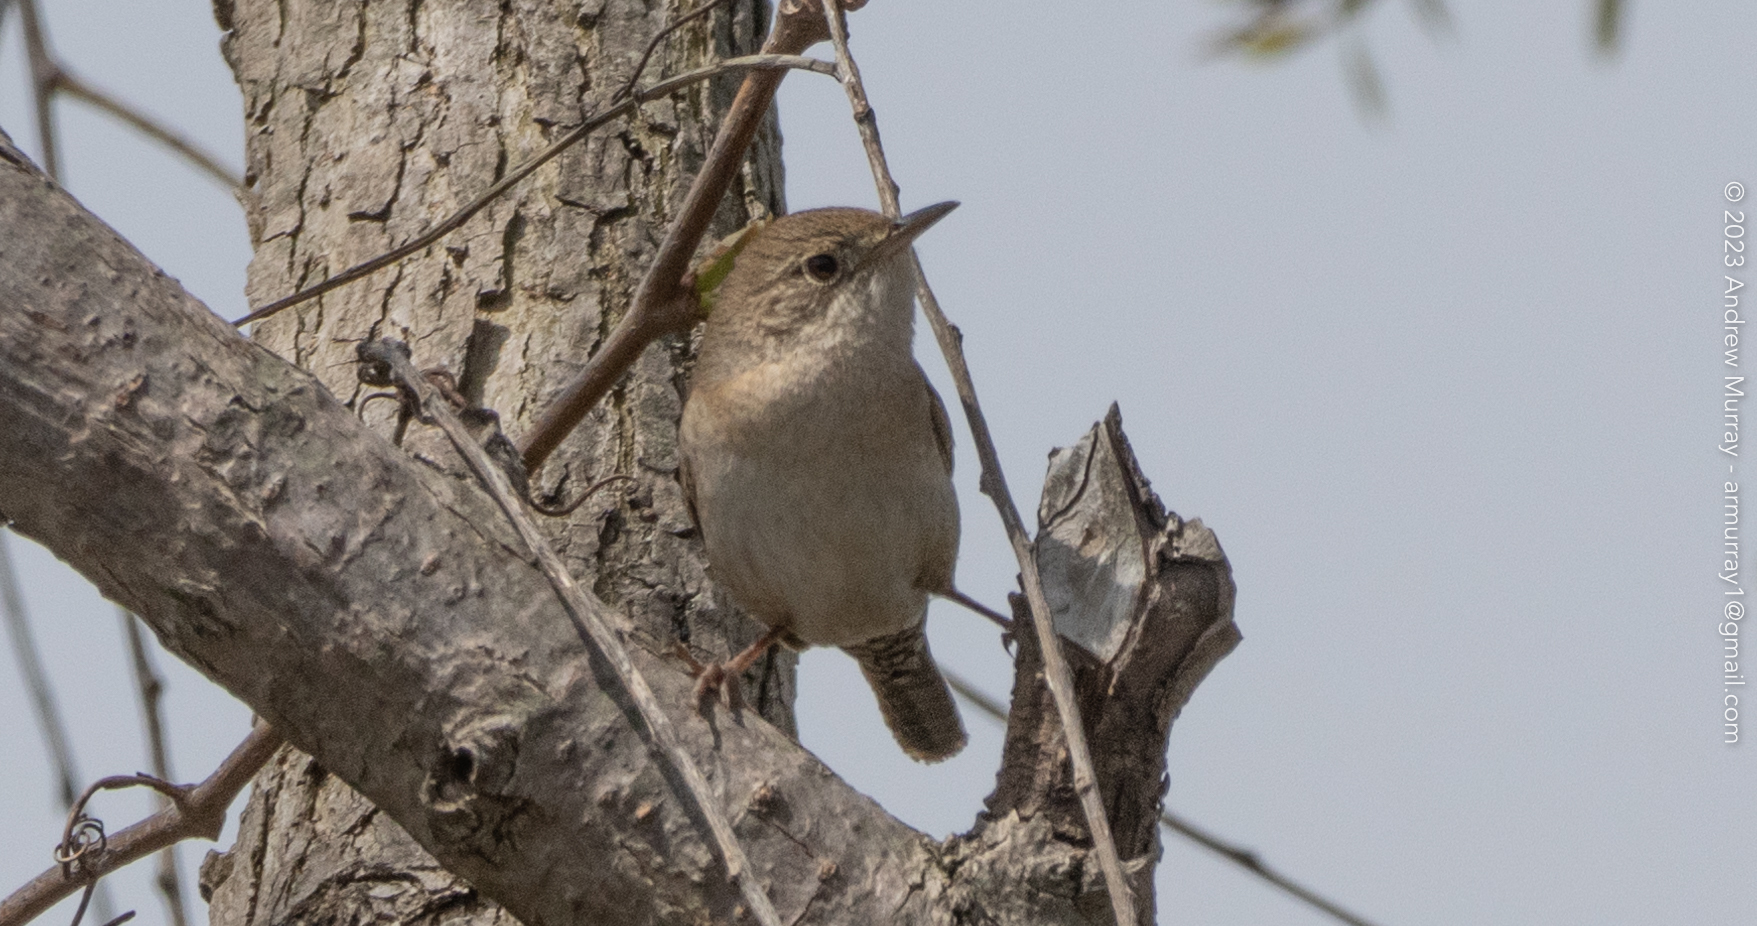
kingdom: Animalia
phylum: Chordata
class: Aves
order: Passeriformes
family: Troglodytidae
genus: Troglodytes
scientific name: Troglodytes aedon
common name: House wren
